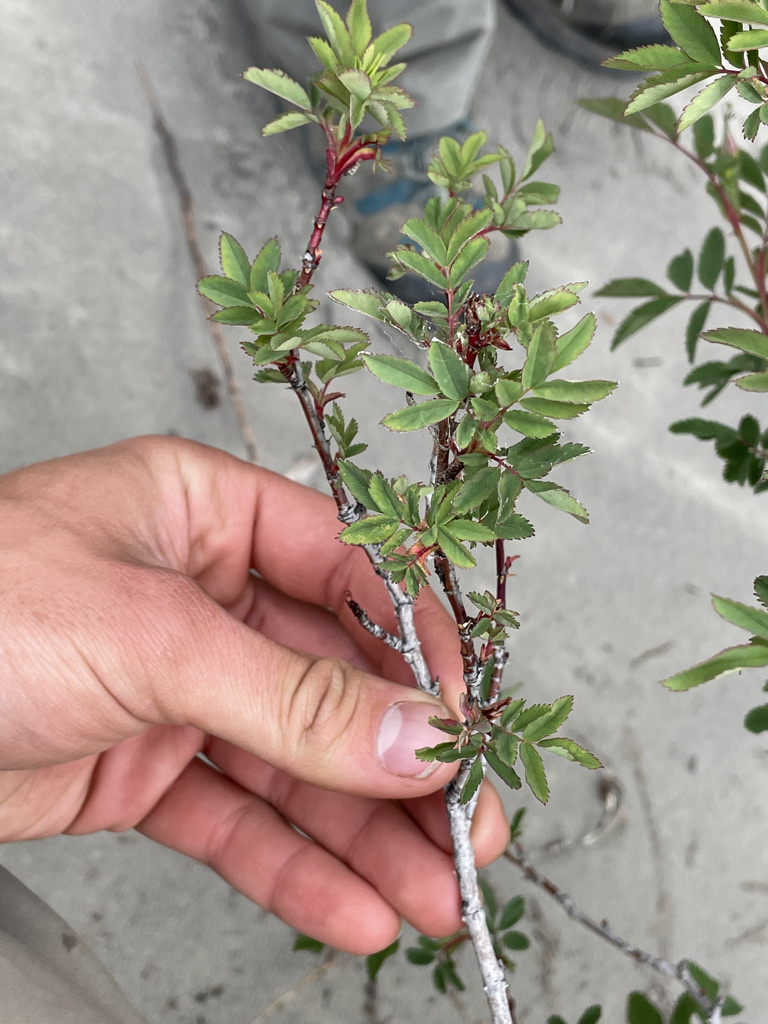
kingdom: Plantae
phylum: Tracheophyta
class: Magnoliopsida
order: Rosales
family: Rosaceae
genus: Rosa
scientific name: Rosa woodsii
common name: Woods's rose
